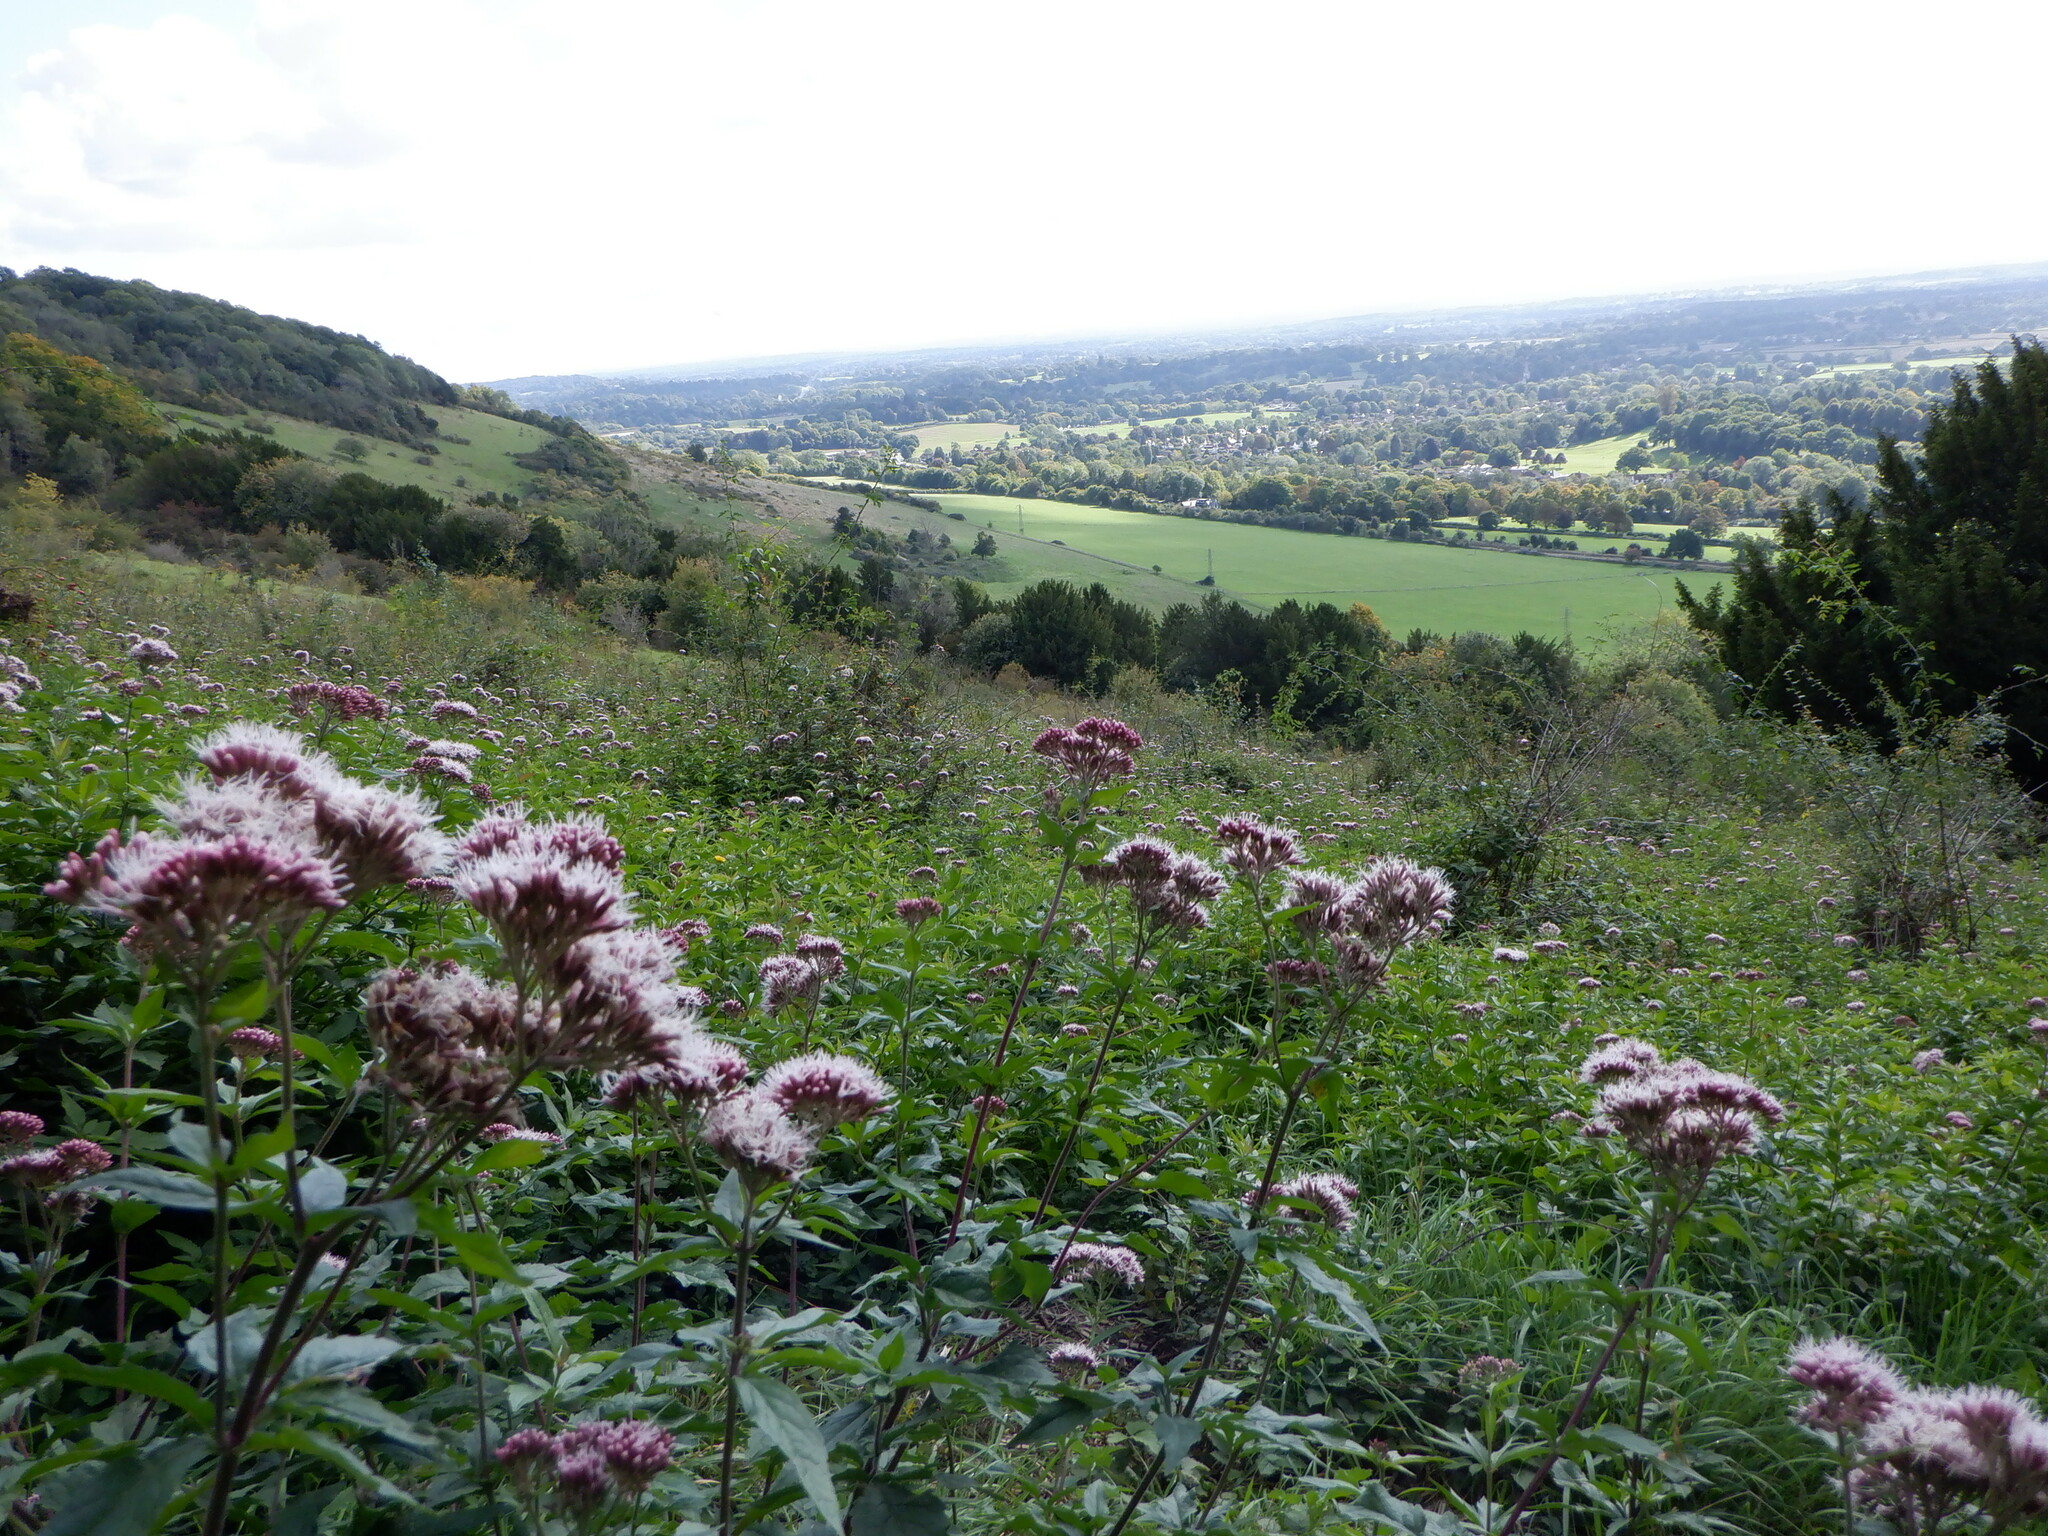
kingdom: Plantae
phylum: Tracheophyta
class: Magnoliopsida
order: Asterales
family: Asteraceae
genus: Eupatorium
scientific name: Eupatorium cannabinum
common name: Hemp-agrimony
